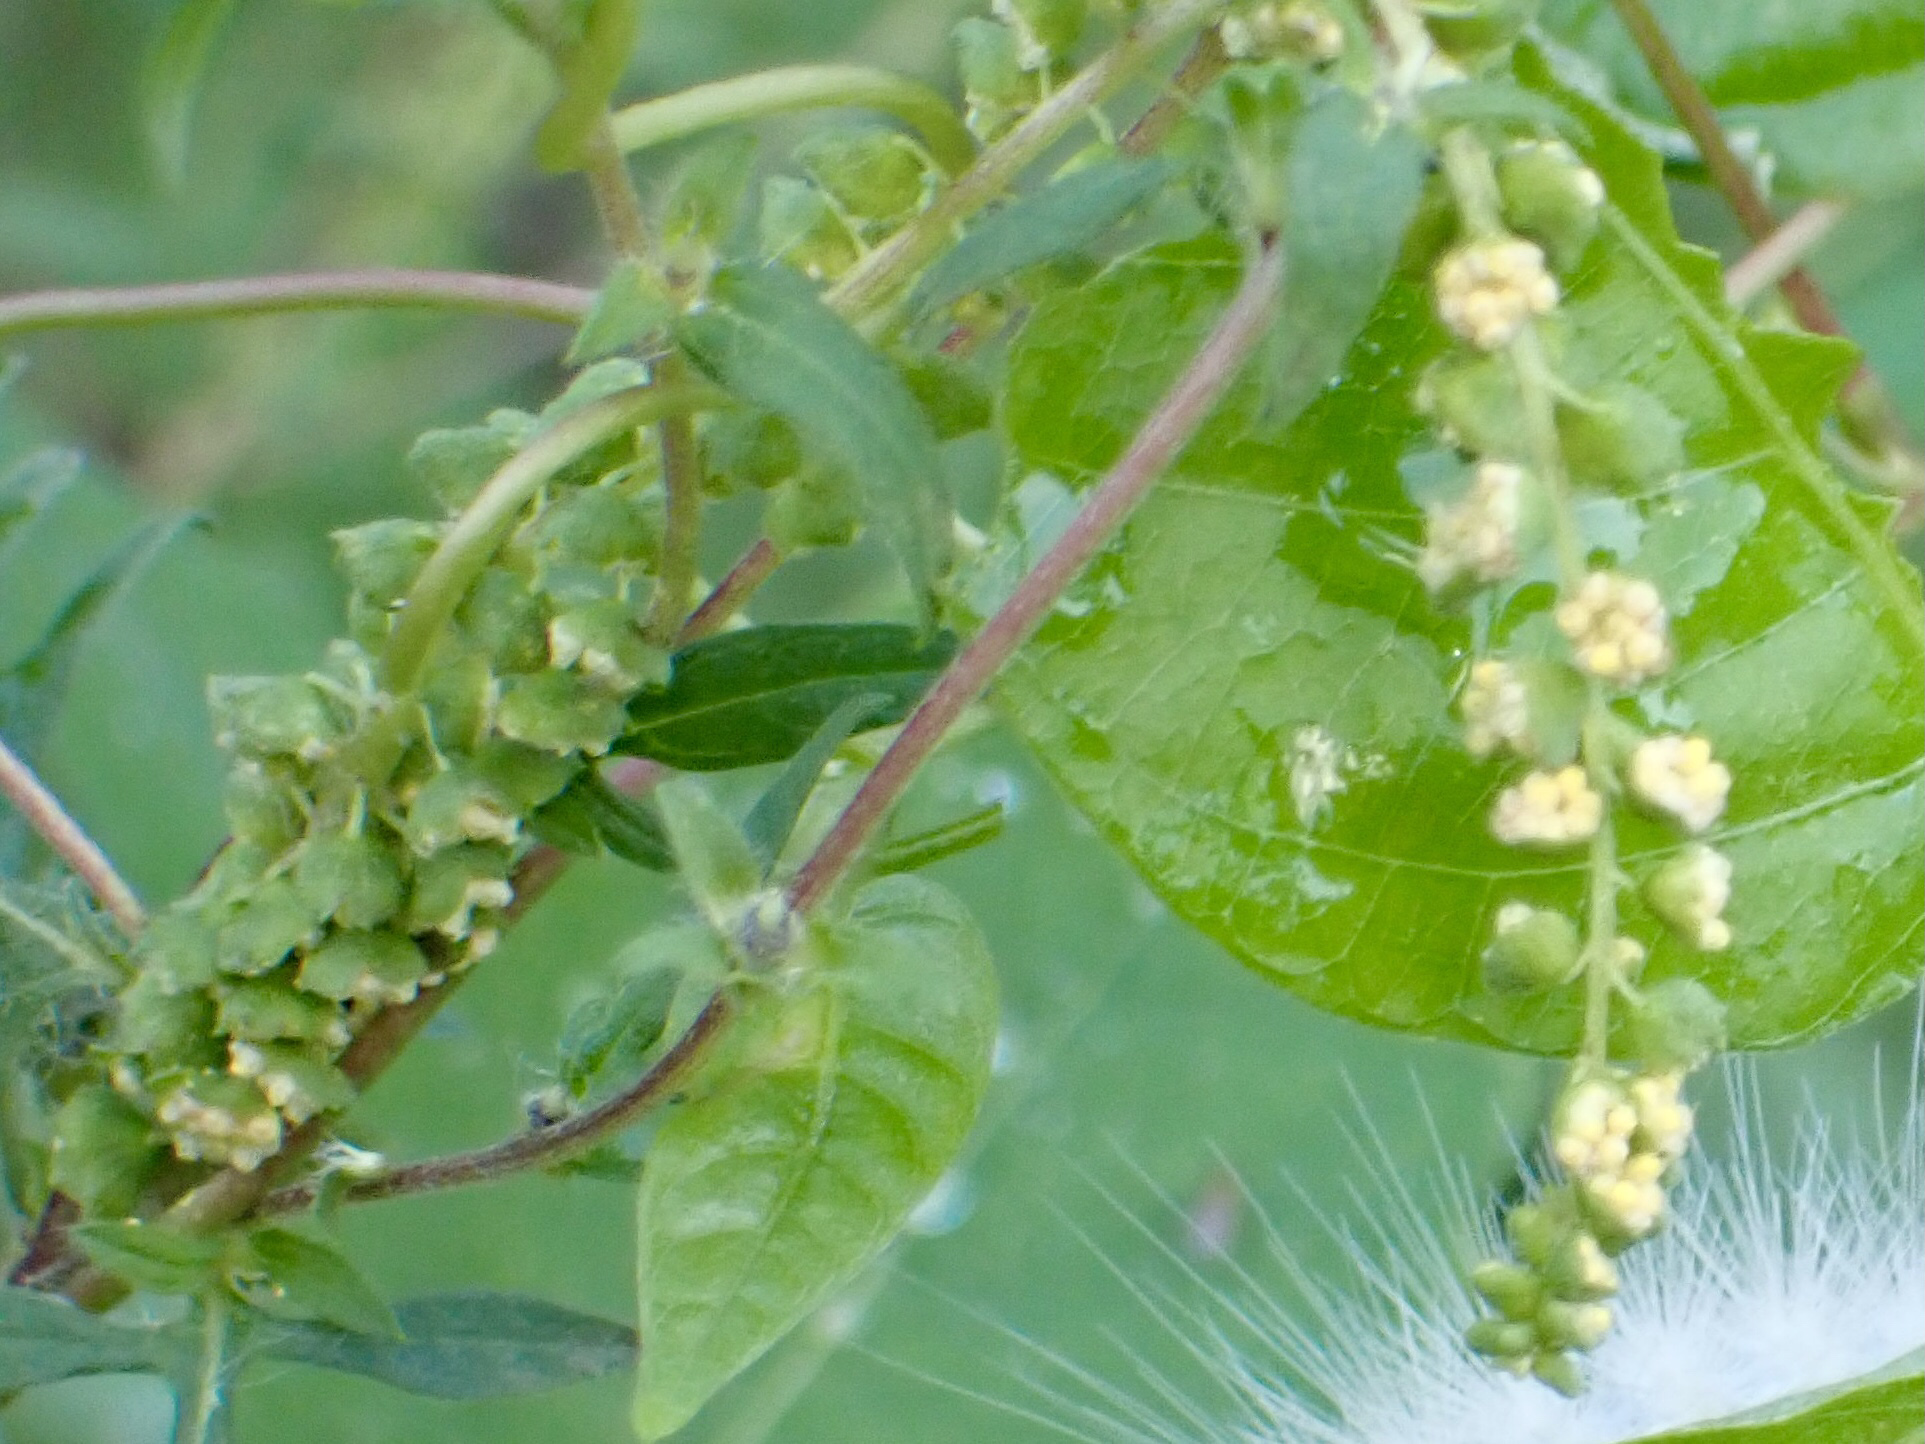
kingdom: Plantae
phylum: Tracheophyta
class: Magnoliopsida
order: Asterales
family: Asteraceae
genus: Ambrosia
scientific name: Ambrosia artemisiifolia
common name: Annual ragweed
